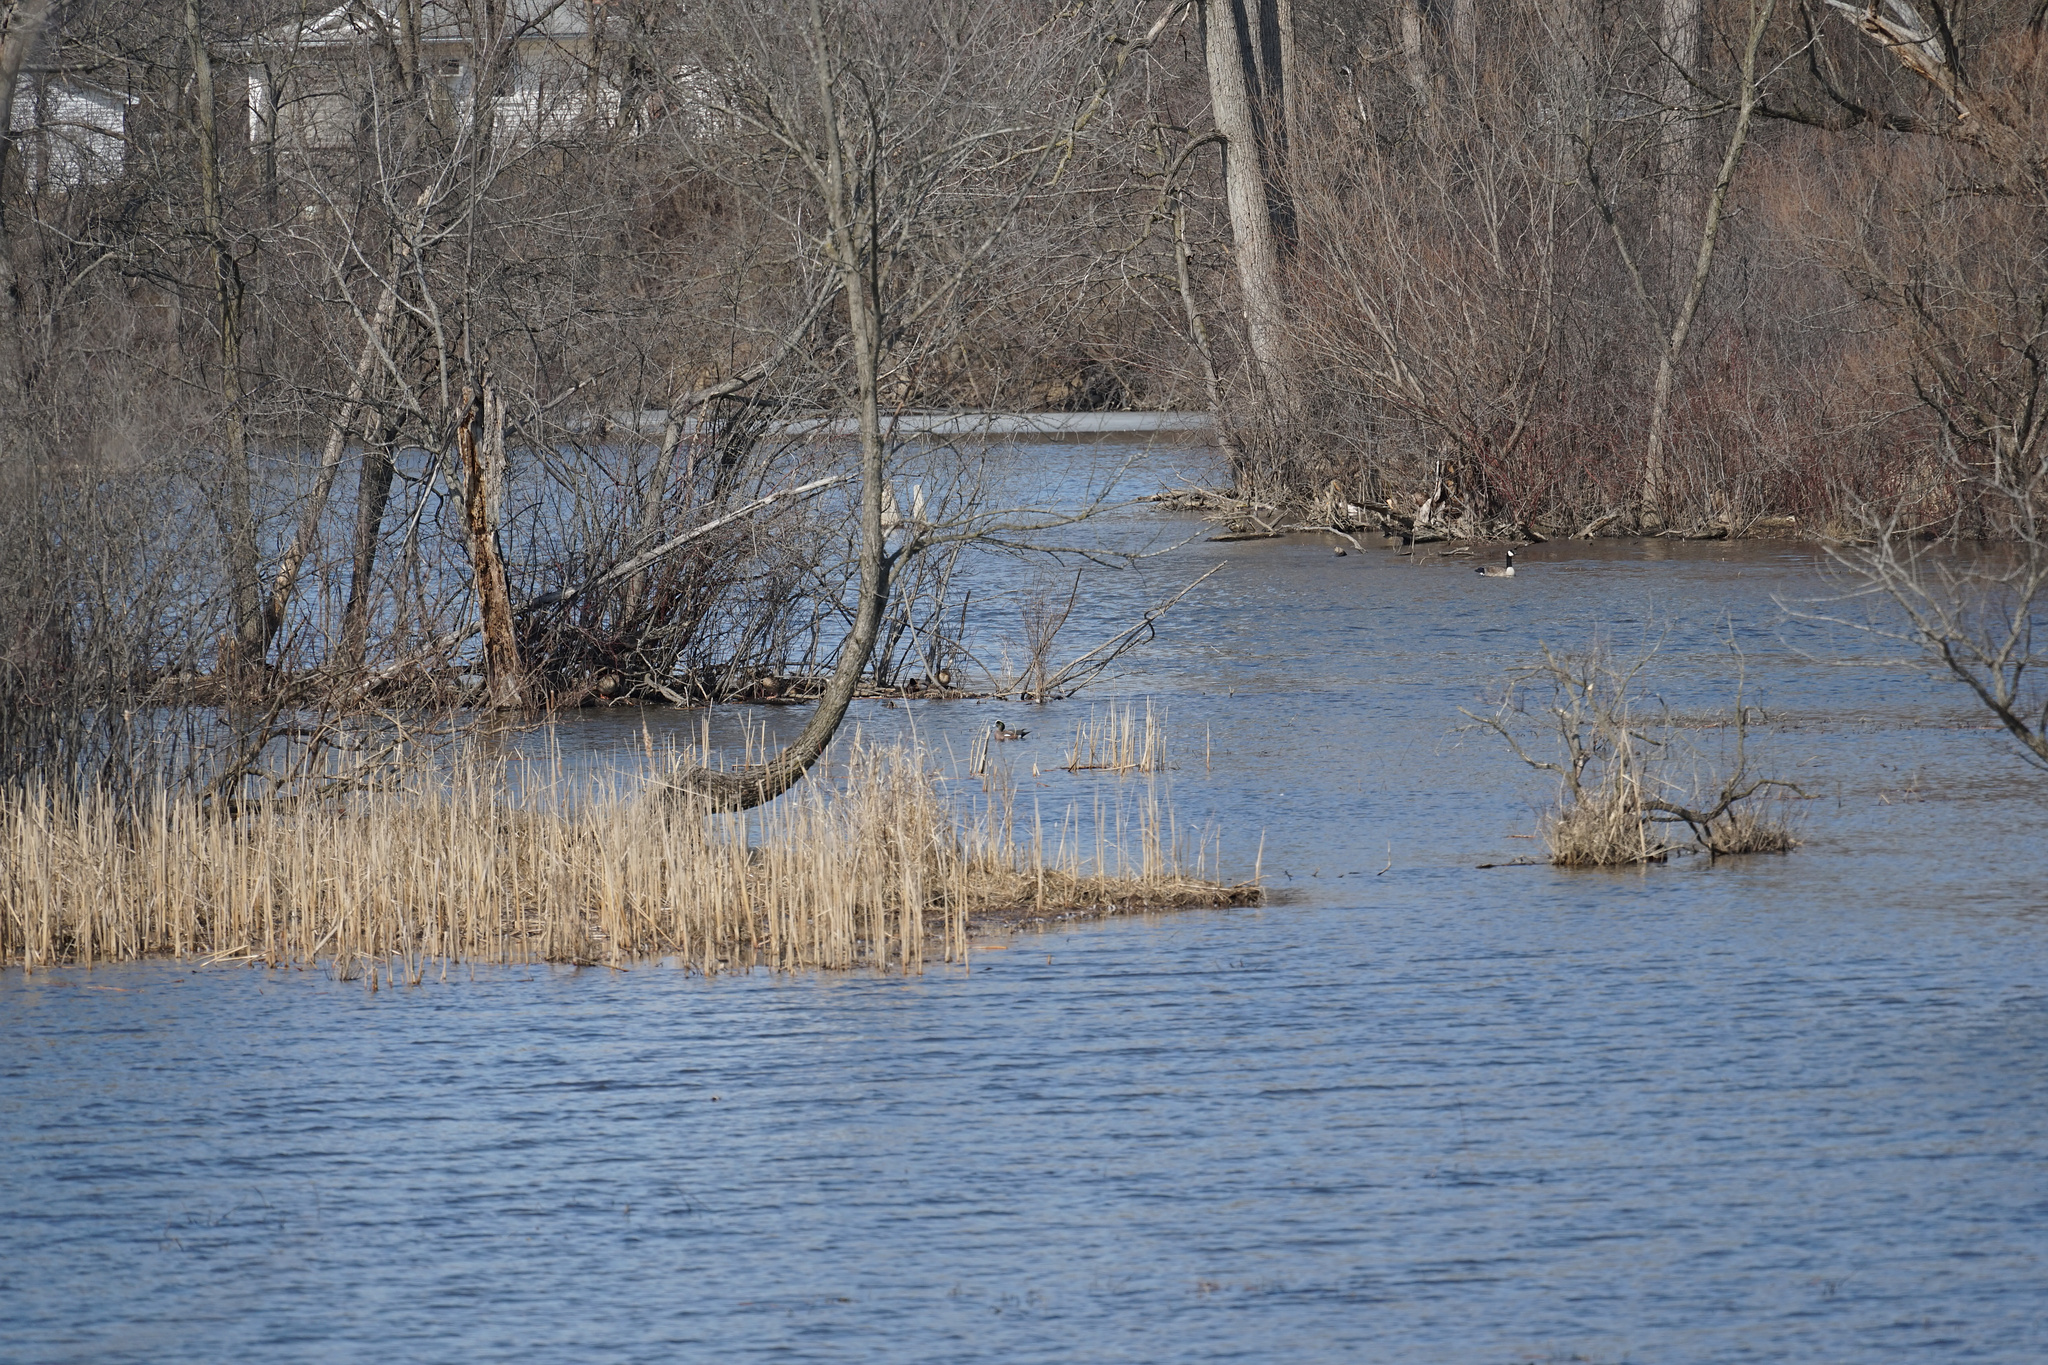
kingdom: Animalia
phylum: Chordata
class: Aves
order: Anseriformes
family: Anatidae
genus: Mareca
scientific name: Mareca americana
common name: American wigeon
